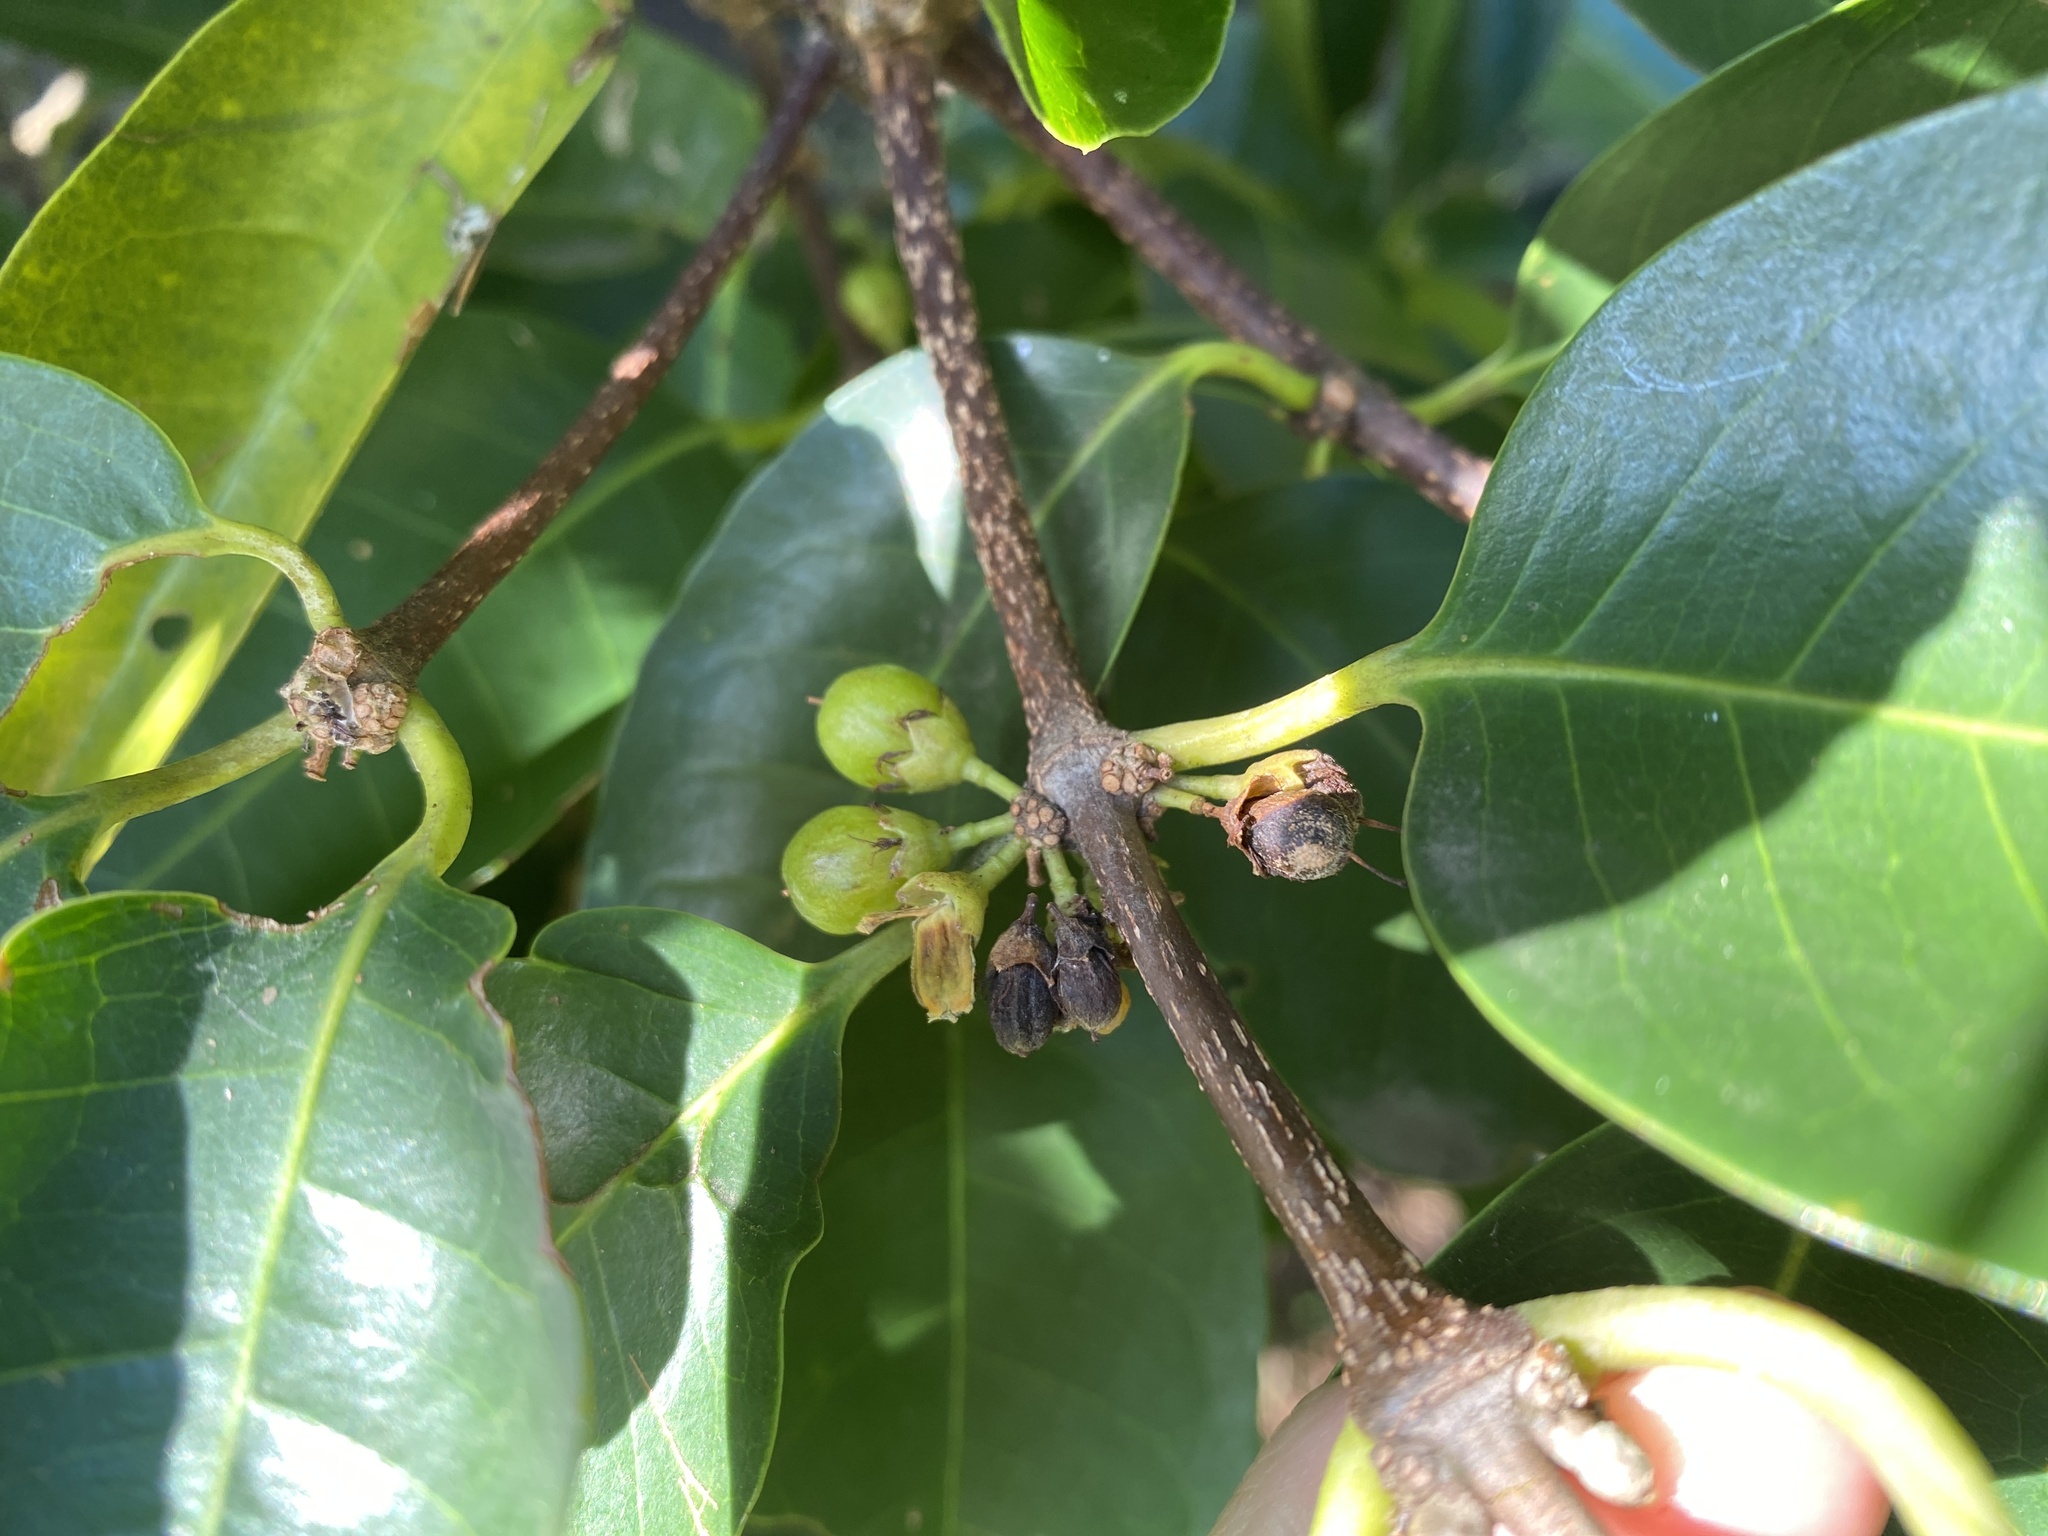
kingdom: Plantae
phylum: Tracheophyta
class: Magnoliopsida
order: Malpighiales
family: Rhizophoraceae
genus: Cassipourea
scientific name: Cassipourea gummiflua
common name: Large-leaved onionwood
